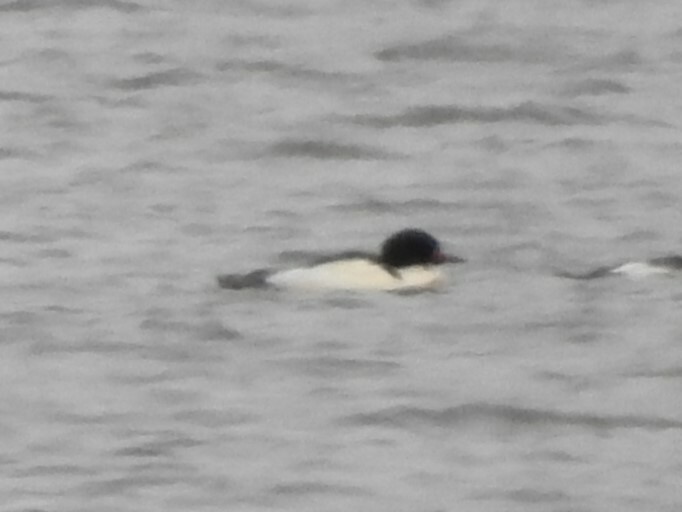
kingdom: Animalia
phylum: Chordata
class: Aves
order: Anseriformes
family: Anatidae
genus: Mergus
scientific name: Mergus merganser
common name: Common merganser
